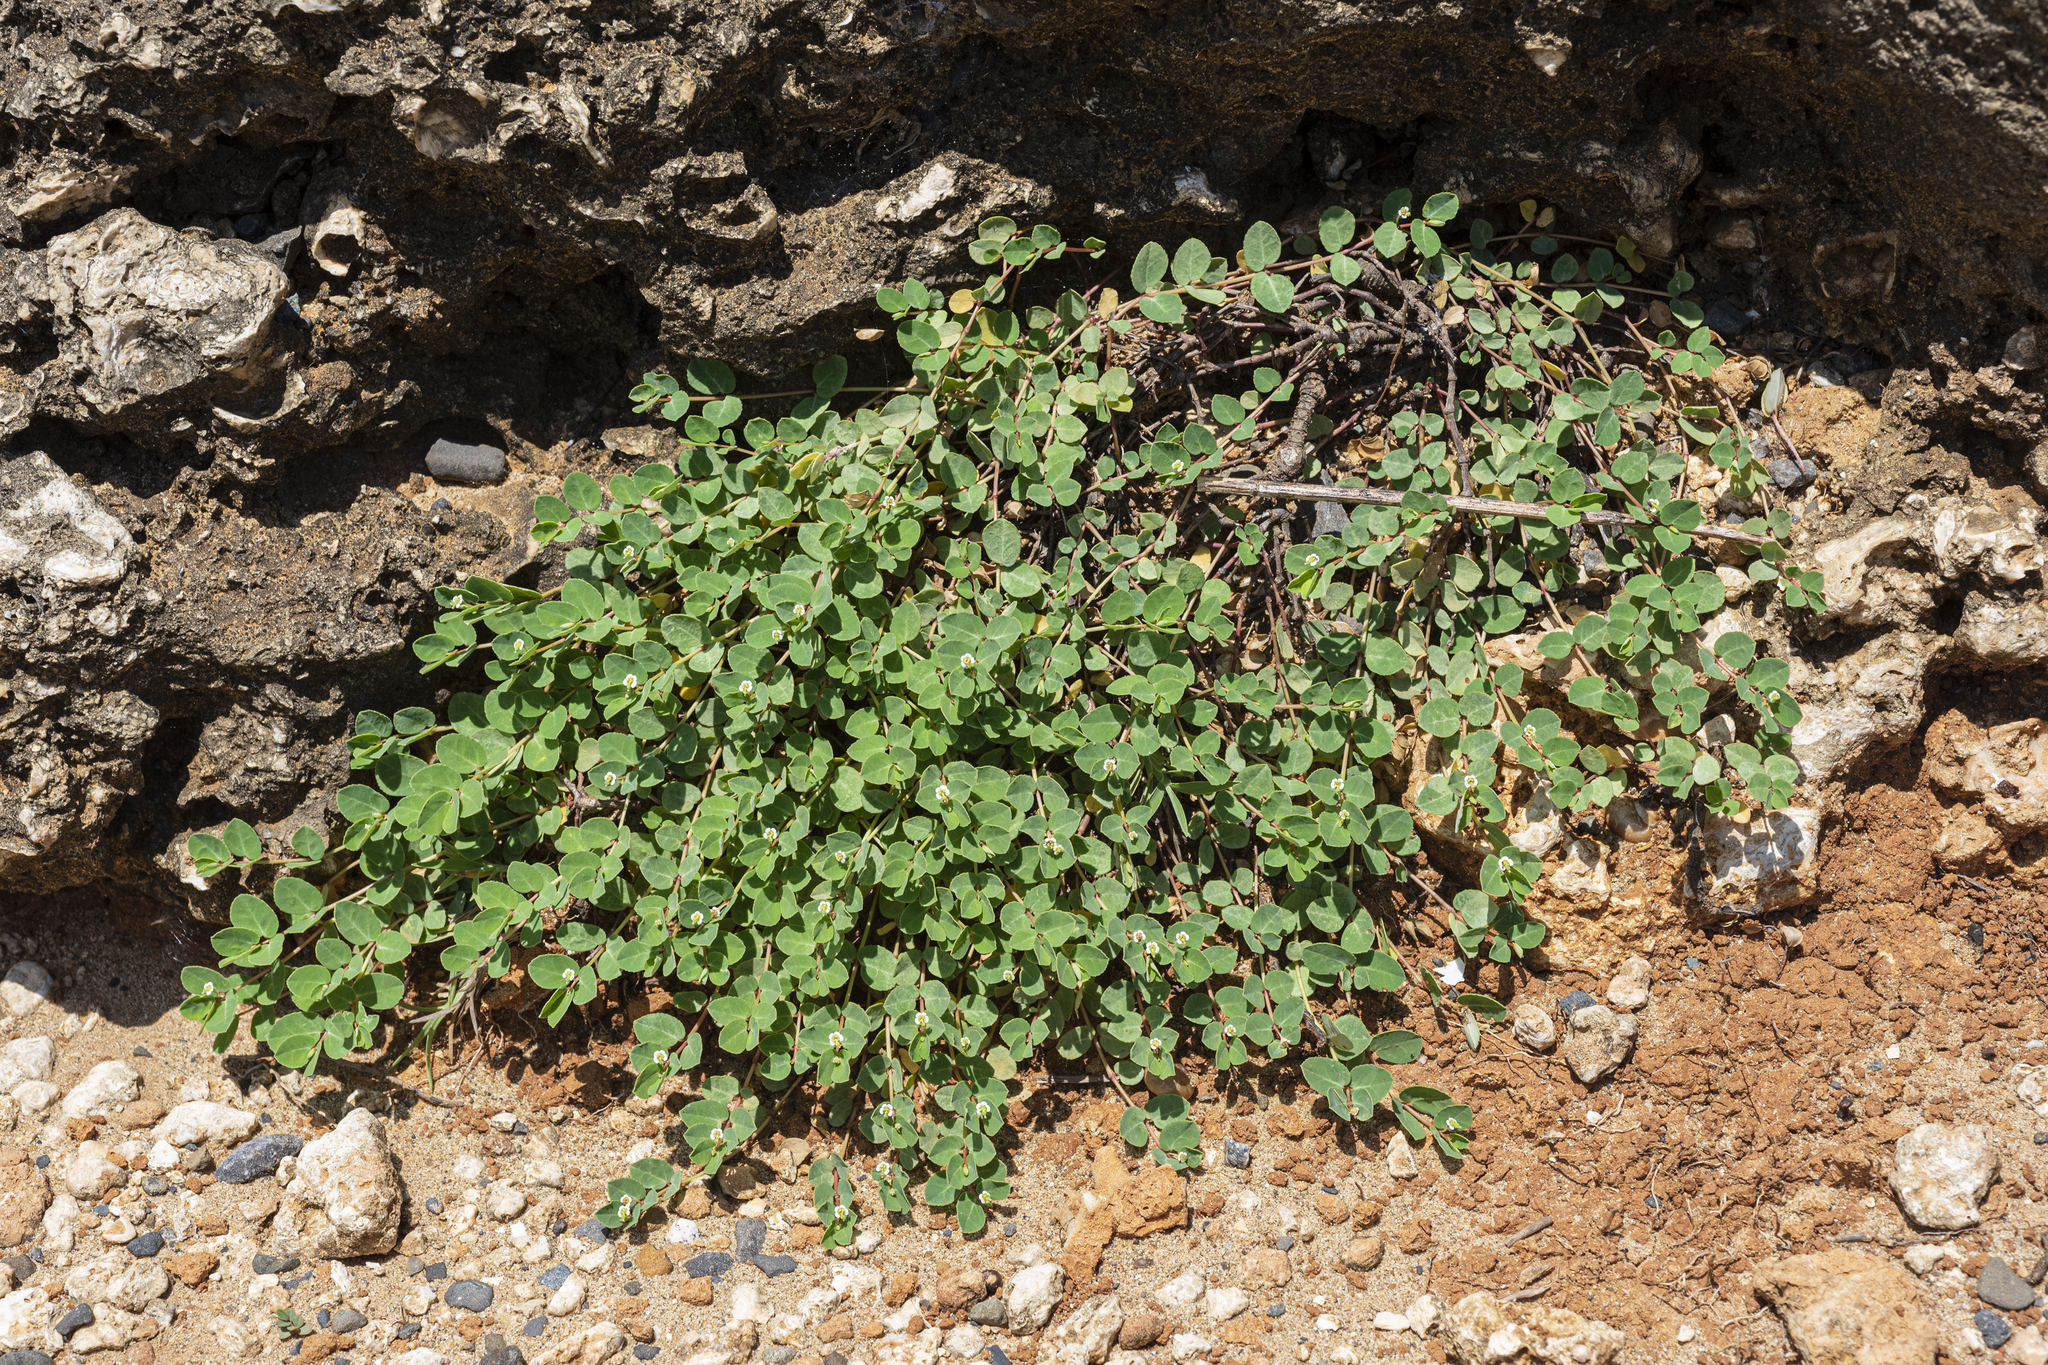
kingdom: Plantae
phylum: Tracheophyta
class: Magnoliopsida
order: Malpighiales
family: Euphorbiaceae
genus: Euphorbia
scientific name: Euphorbia garanbiensis
